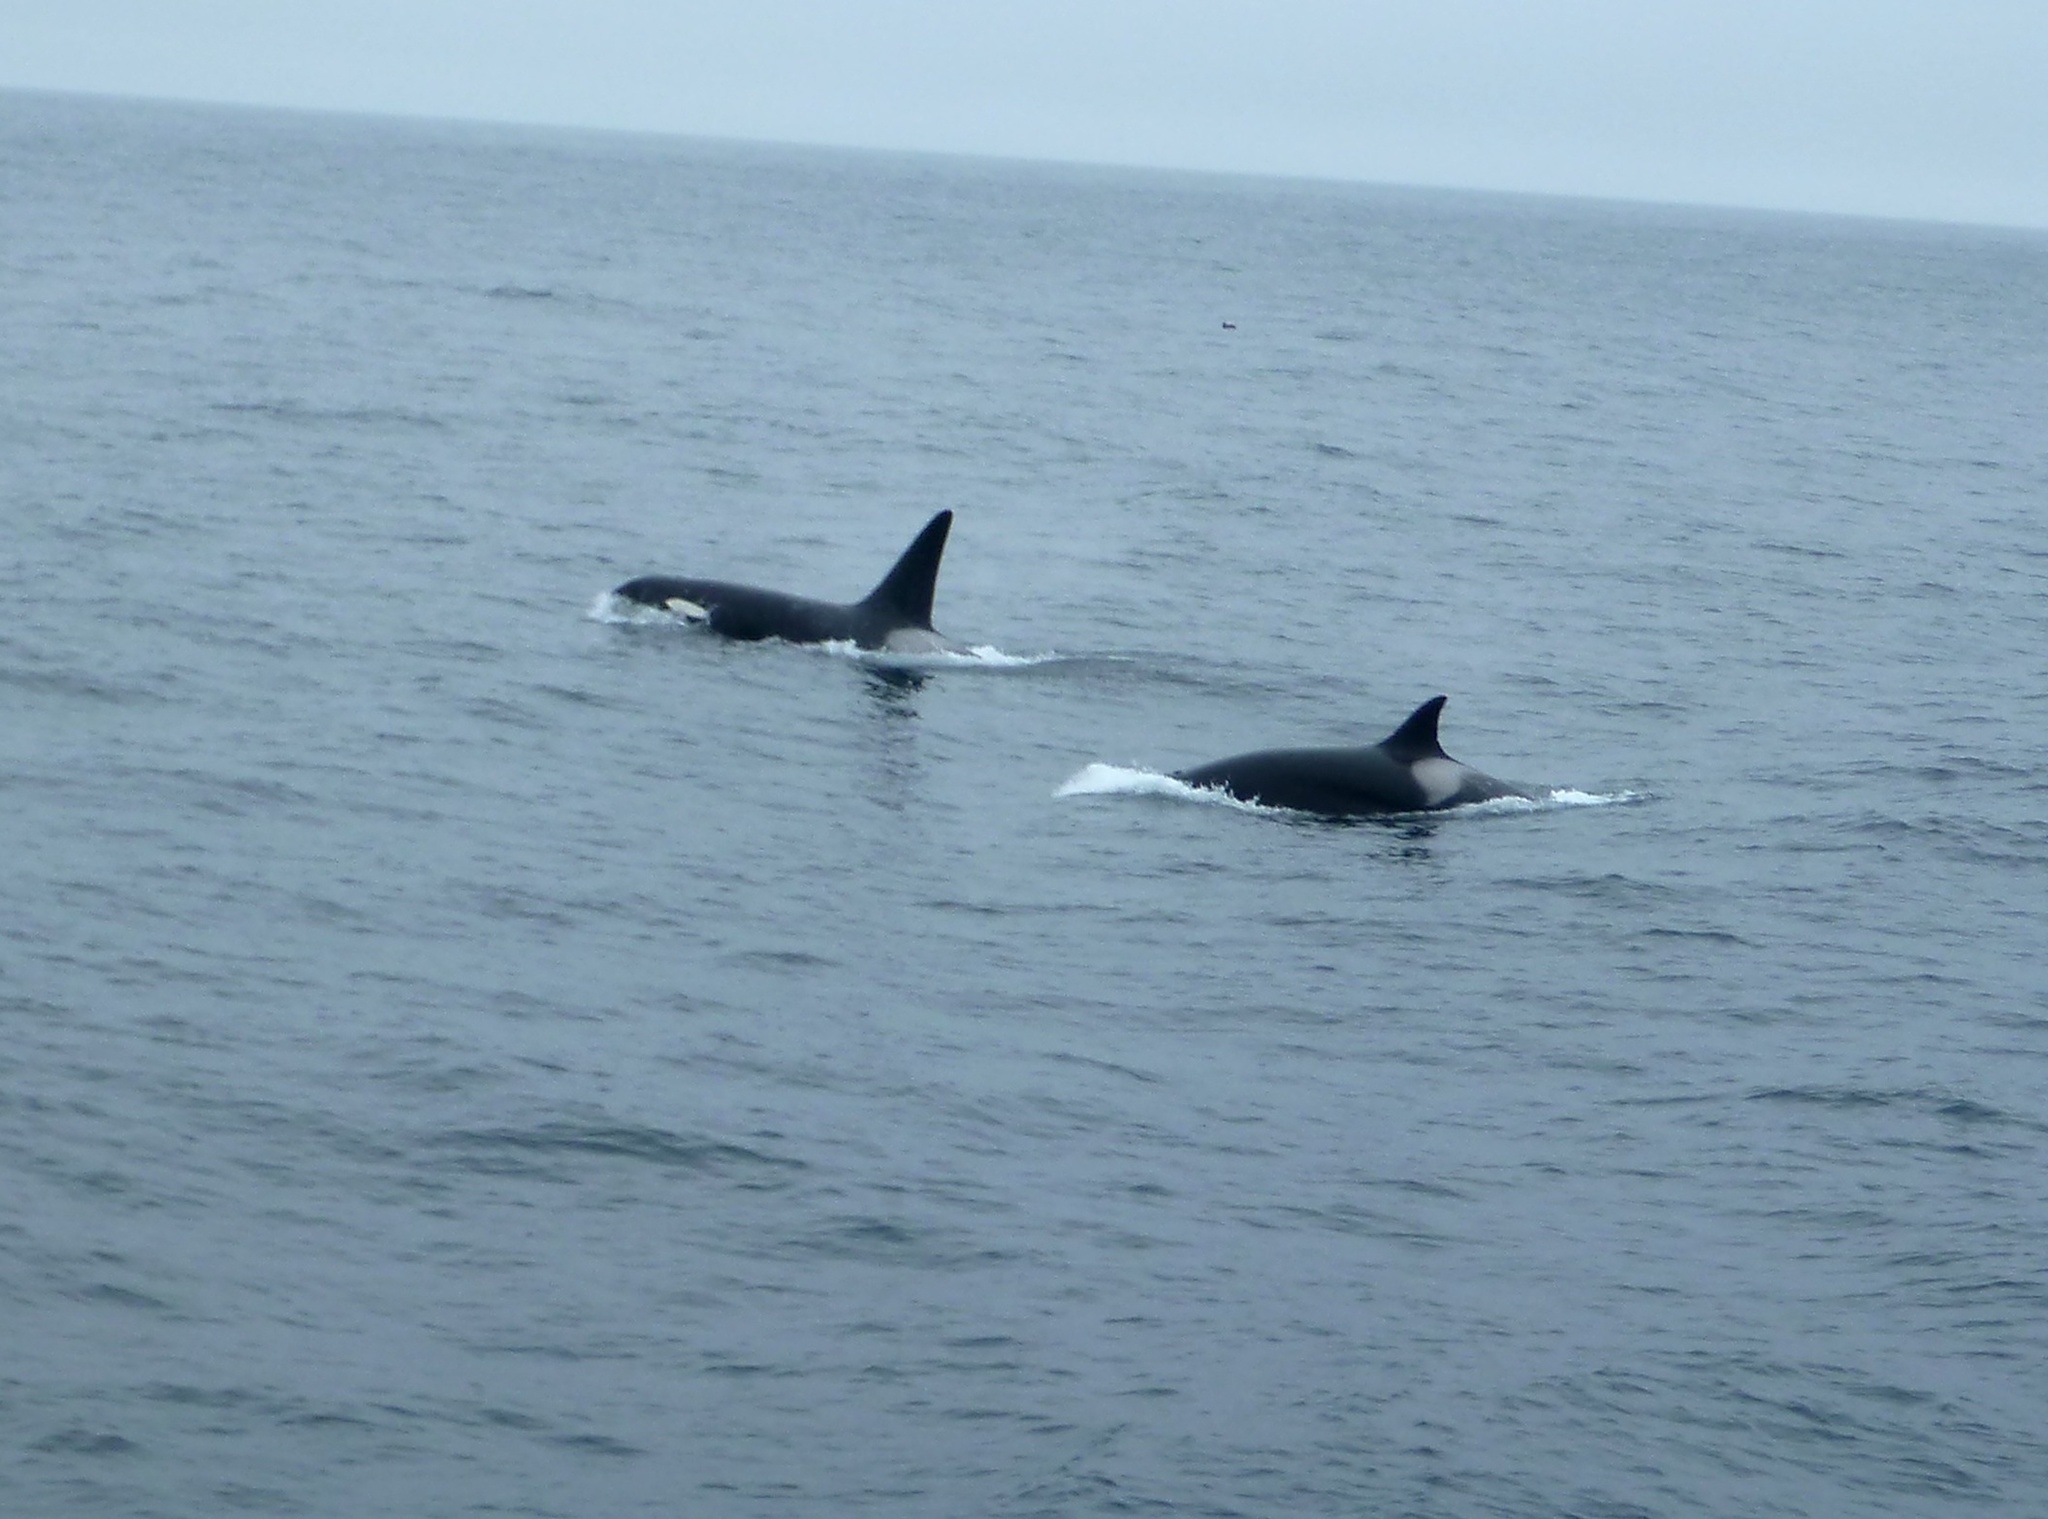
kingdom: Animalia
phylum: Chordata
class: Mammalia
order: Cetacea
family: Delphinidae
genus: Orcinus
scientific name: Orcinus orca
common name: Killer whale
